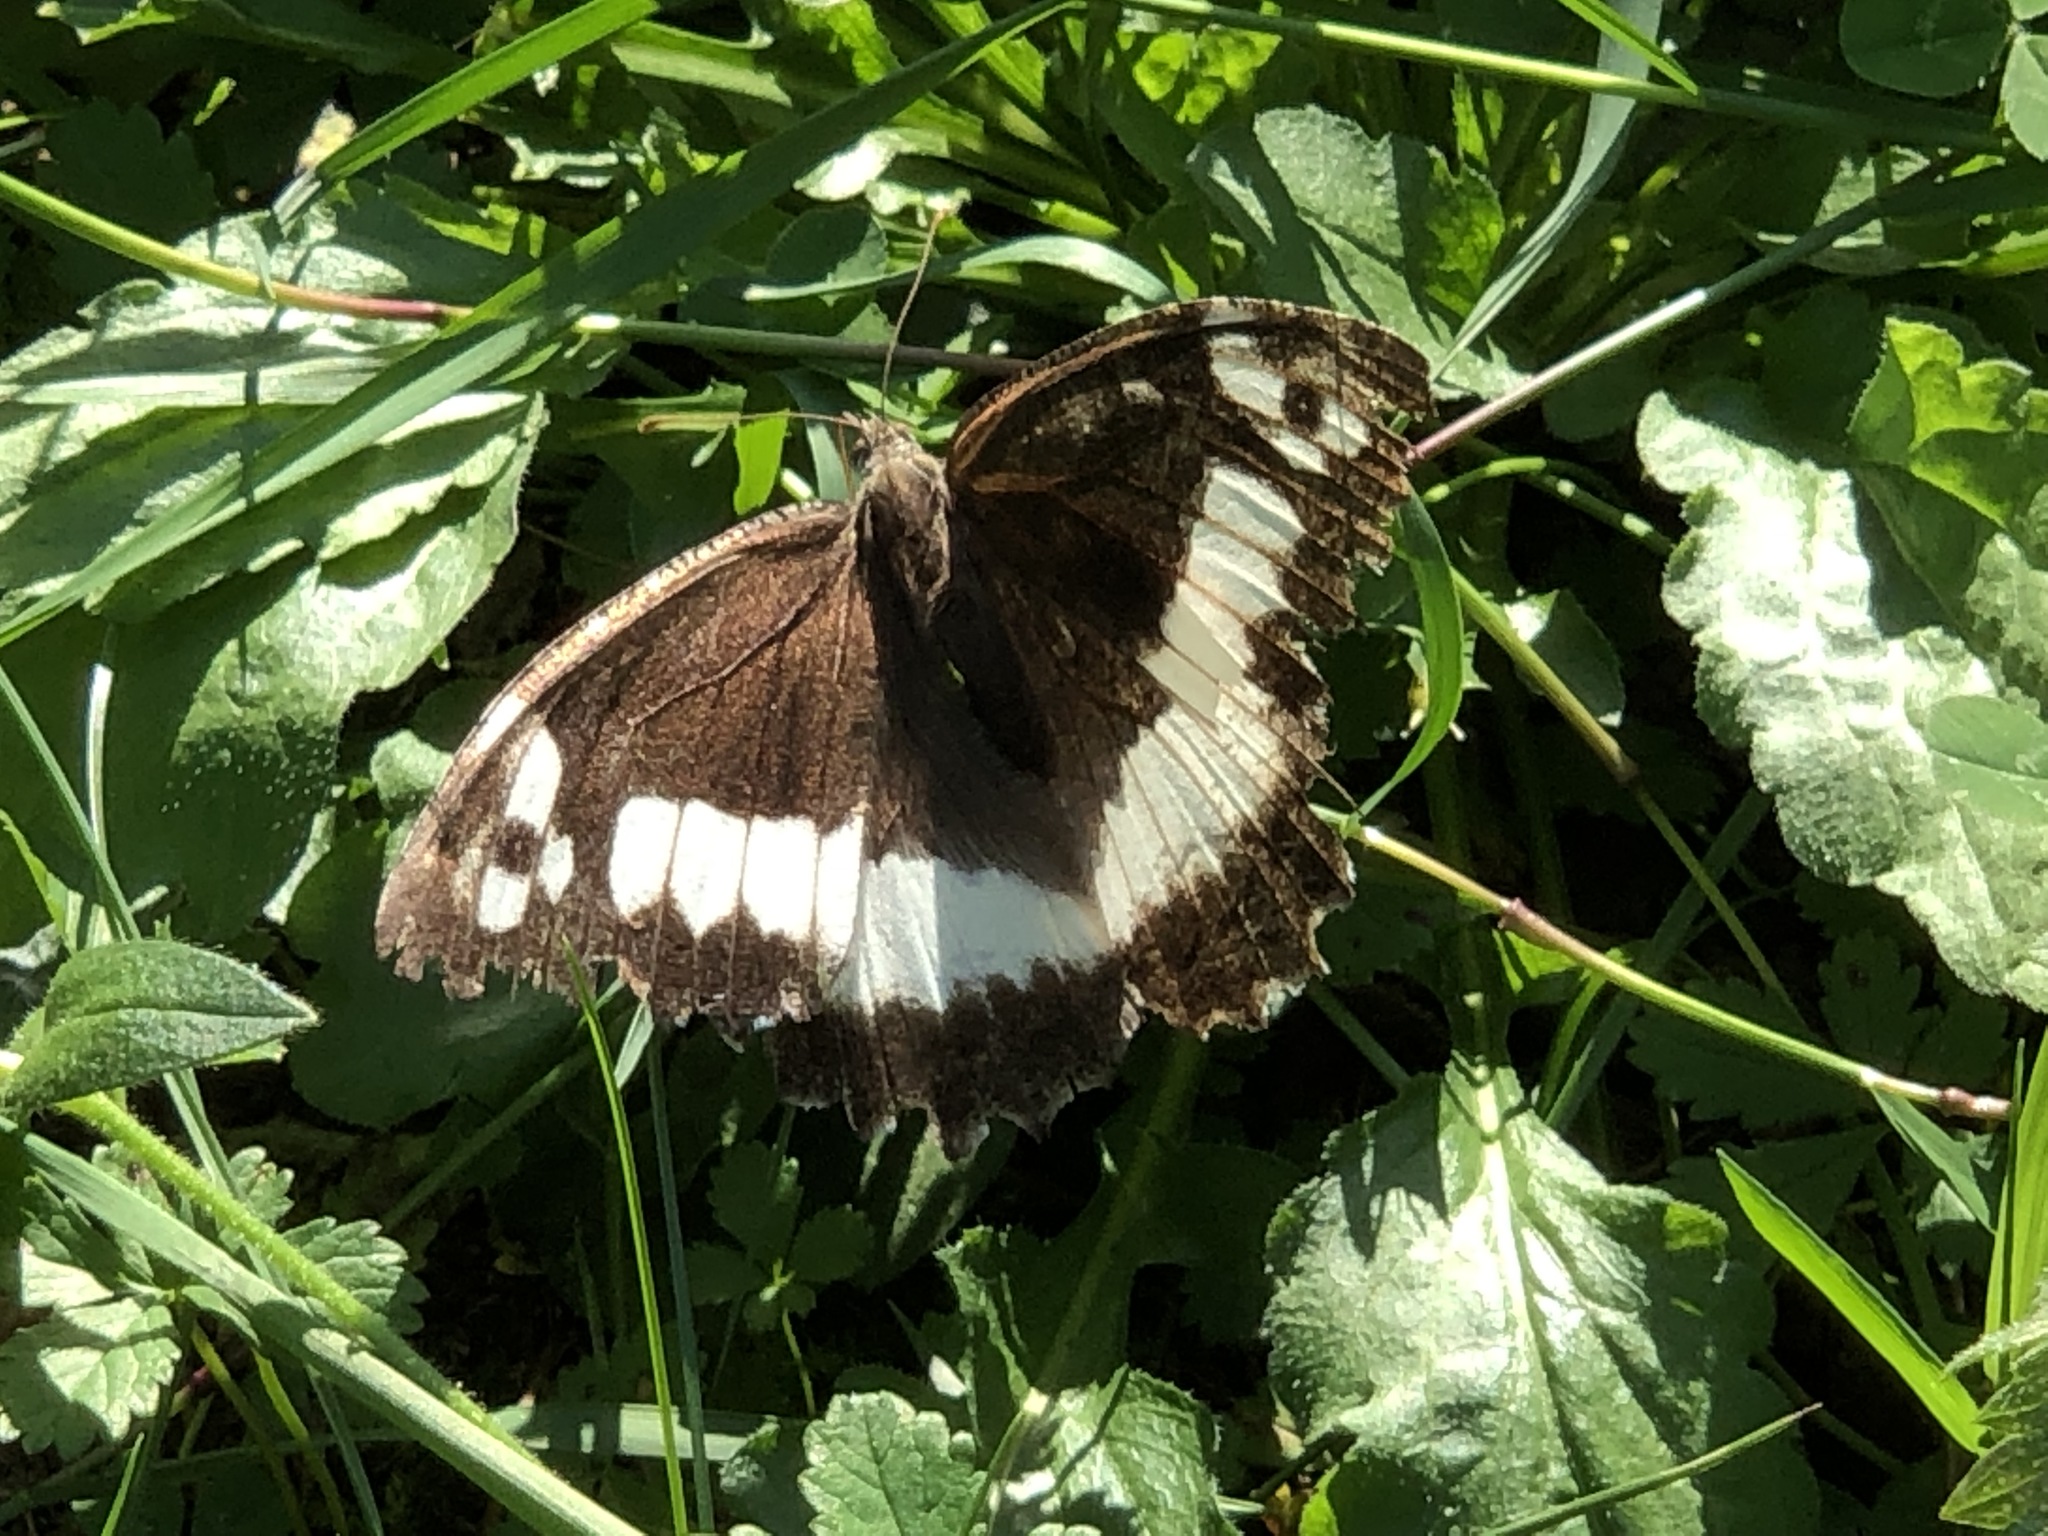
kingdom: Animalia
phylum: Arthropoda
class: Insecta
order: Lepidoptera
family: Lycaenidae
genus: Loweia
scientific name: Loweia tityrus
